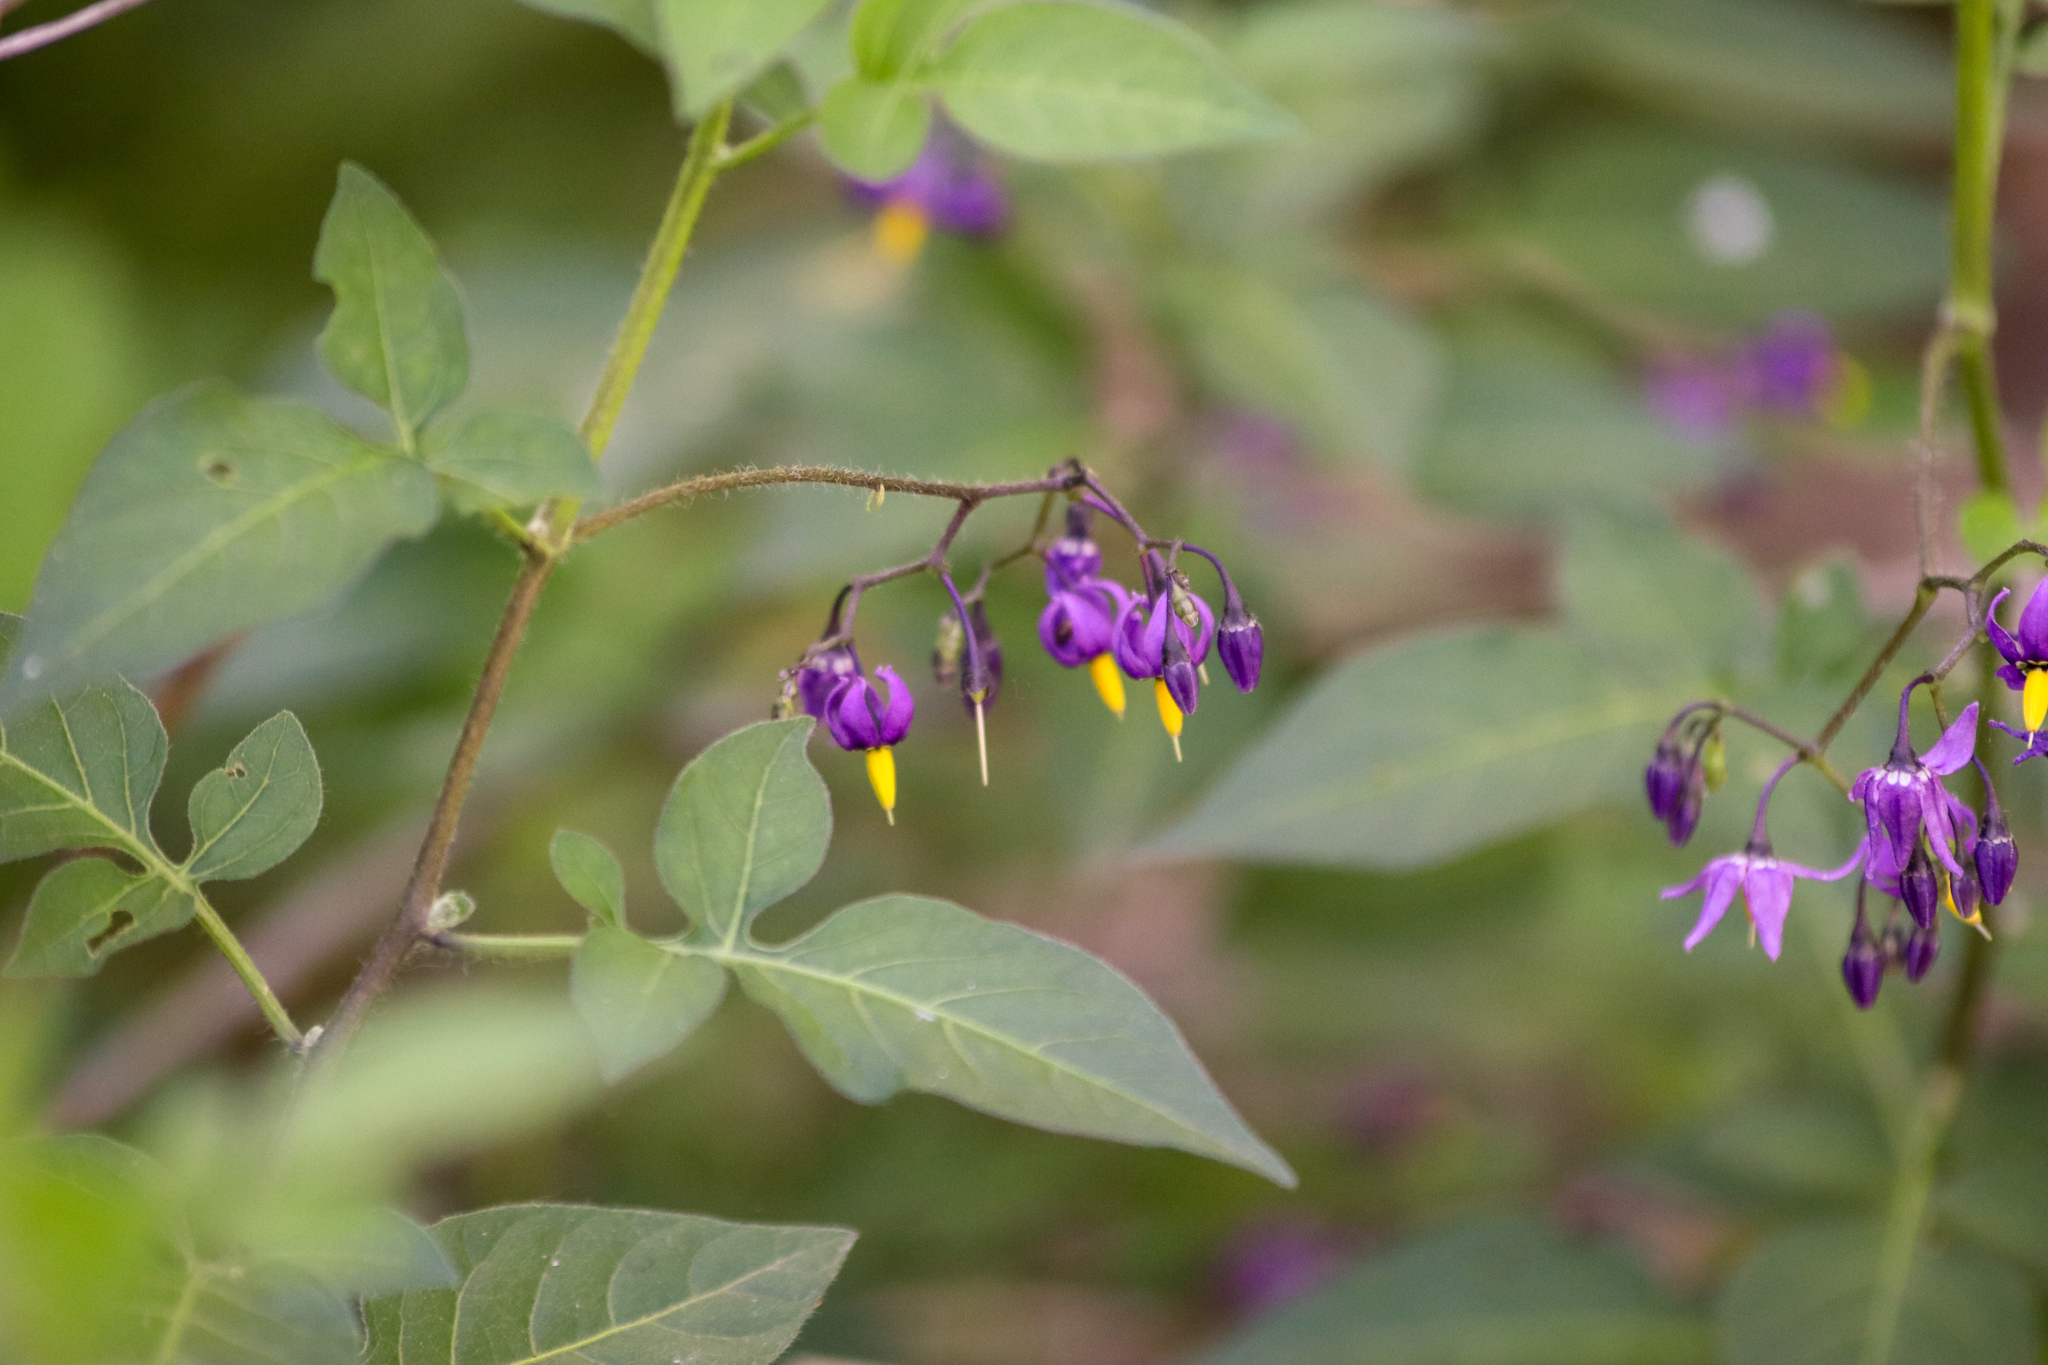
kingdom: Plantae
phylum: Tracheophyta
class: Magnoliopsida
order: Solanales
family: Solanaceae
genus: Solanum
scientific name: Solanum dulcamara
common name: Climbing nightshade
